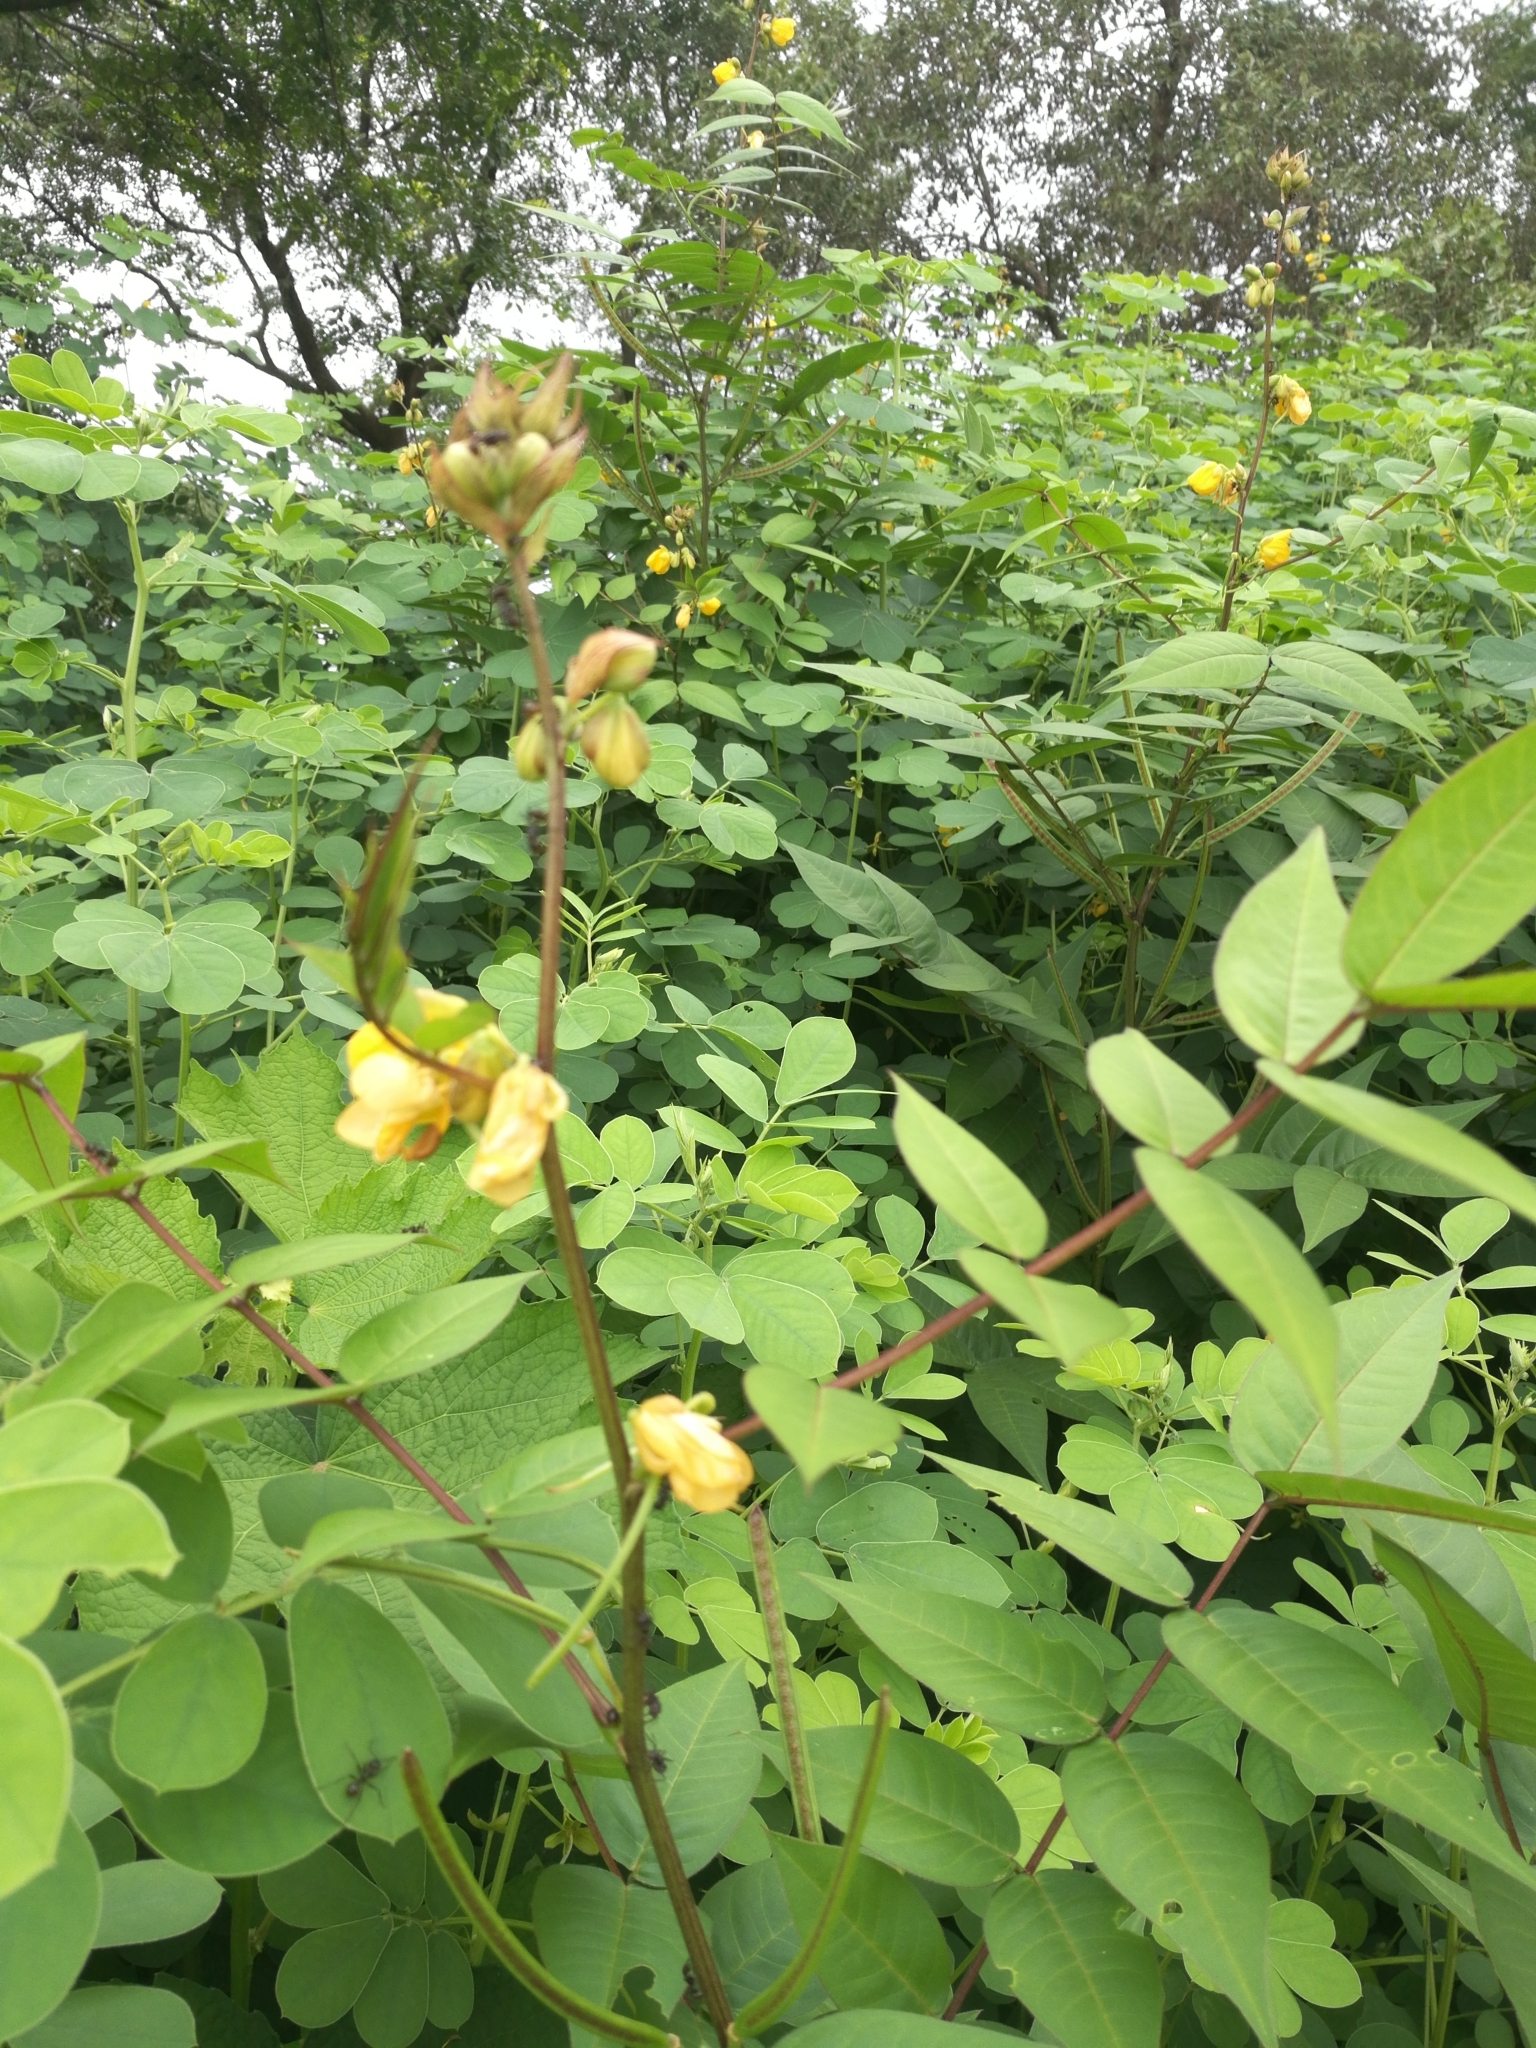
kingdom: Plantae
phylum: Tracheophyta
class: Magnoliopsida
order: Fabales
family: Fabaceae
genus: Senna
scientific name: Senna occidentalis
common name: Septicweed
